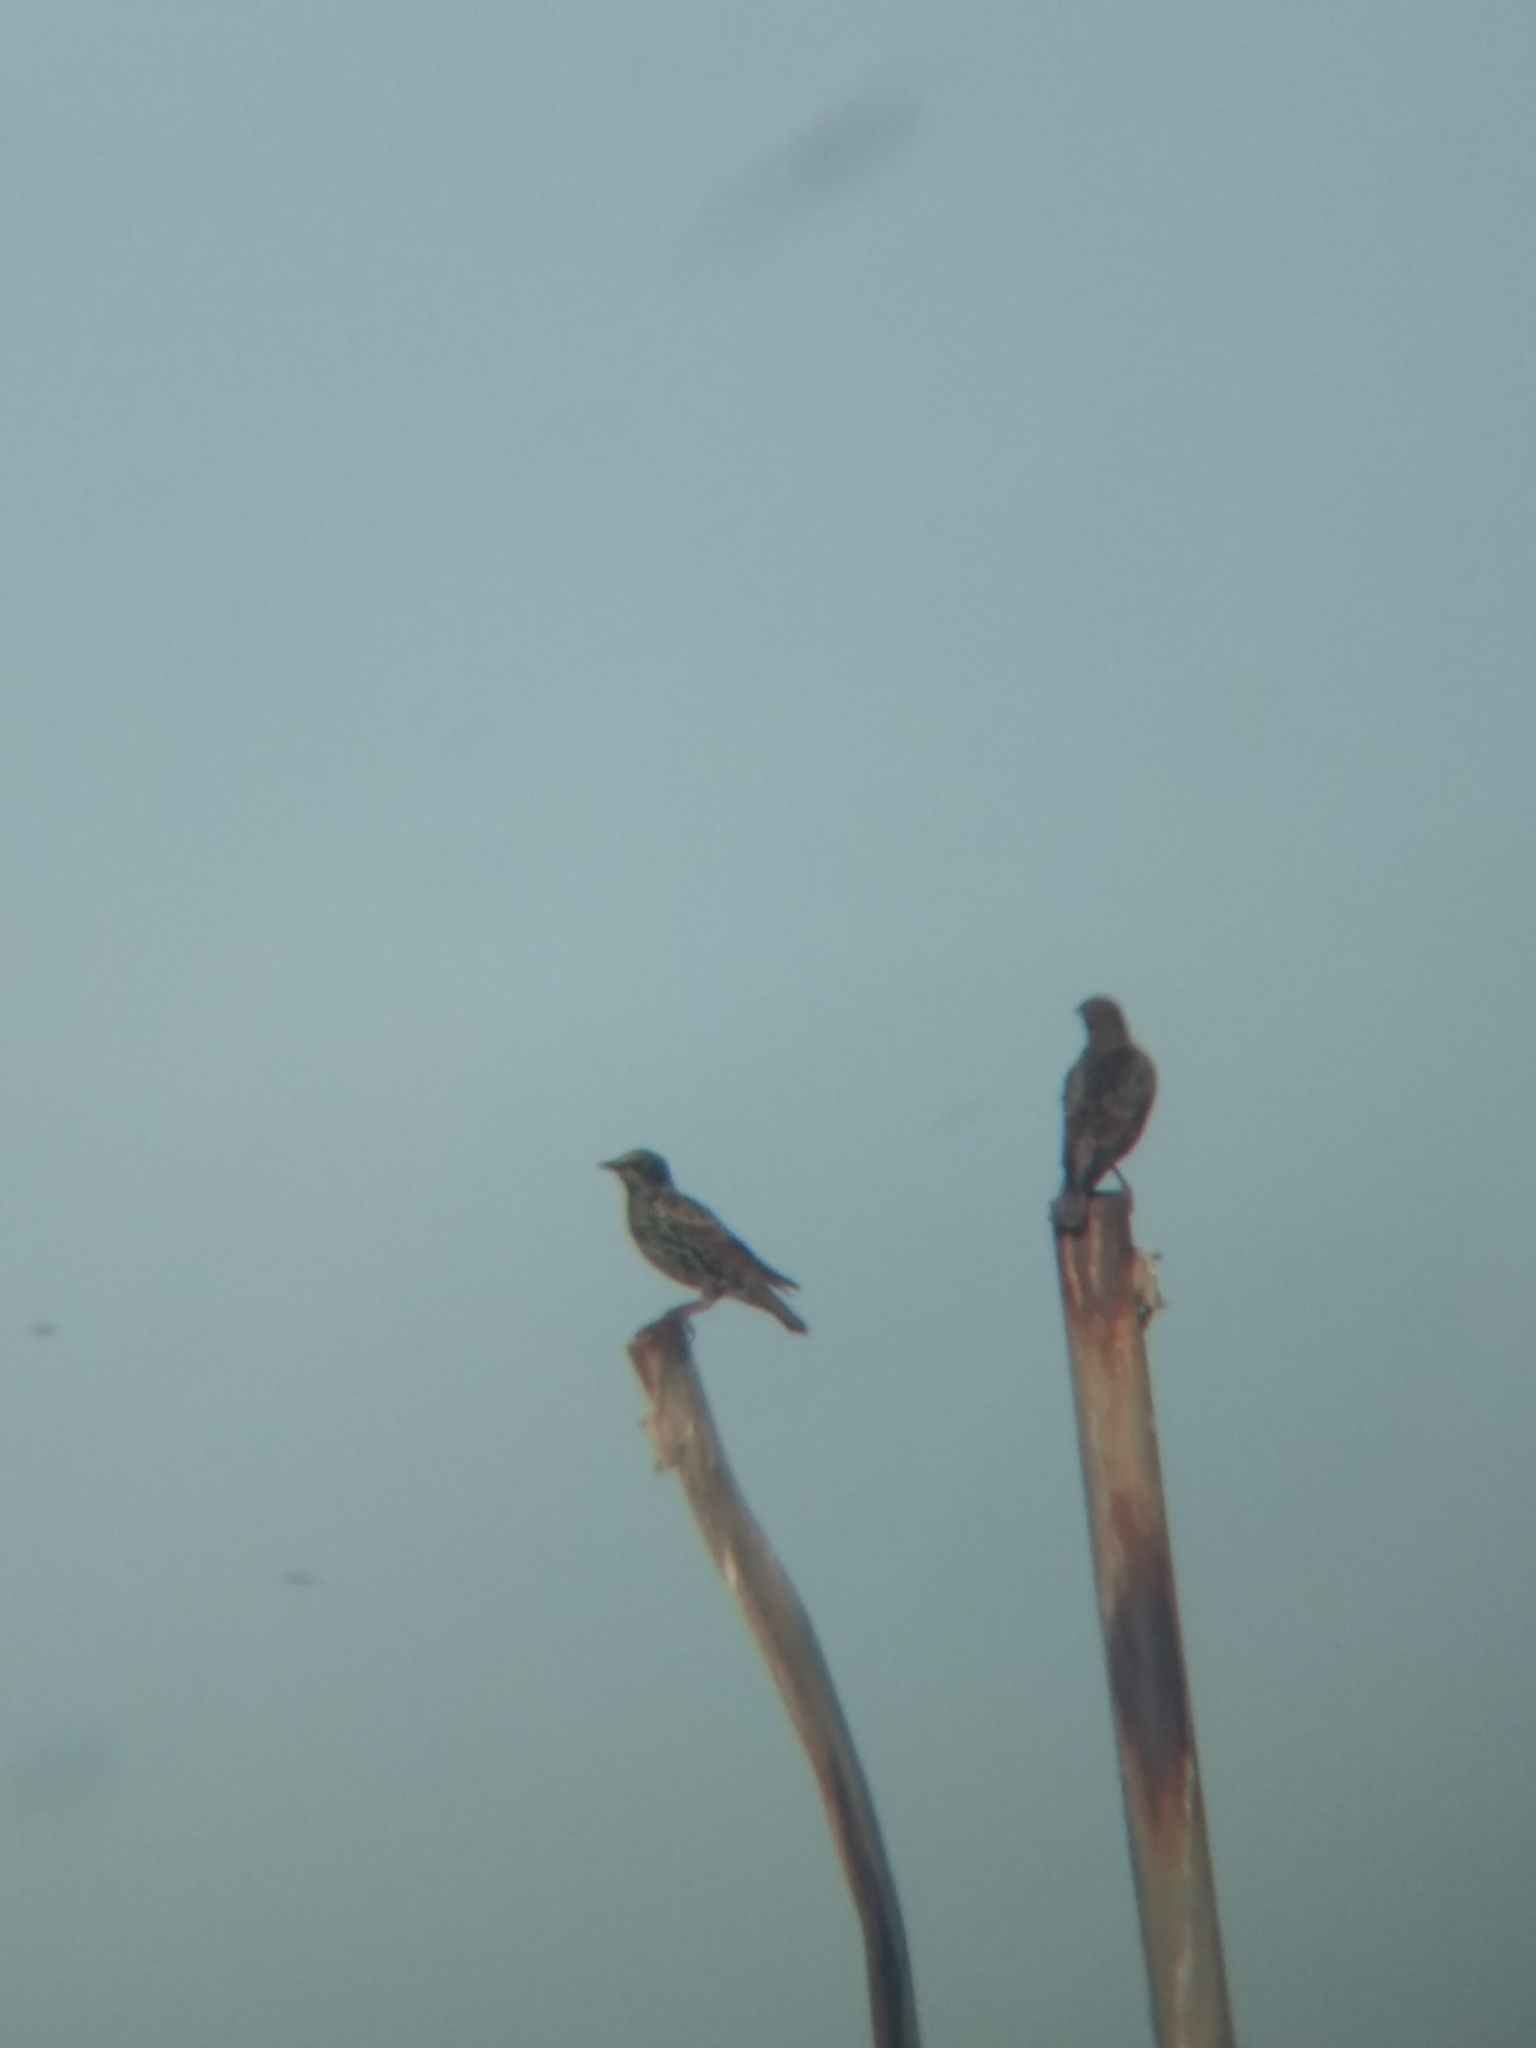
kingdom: Animalia
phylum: Chordata
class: Aves
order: Passeriformes
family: Sturnidae
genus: Sturnus
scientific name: Sturnus vulgaris
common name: Common starling
